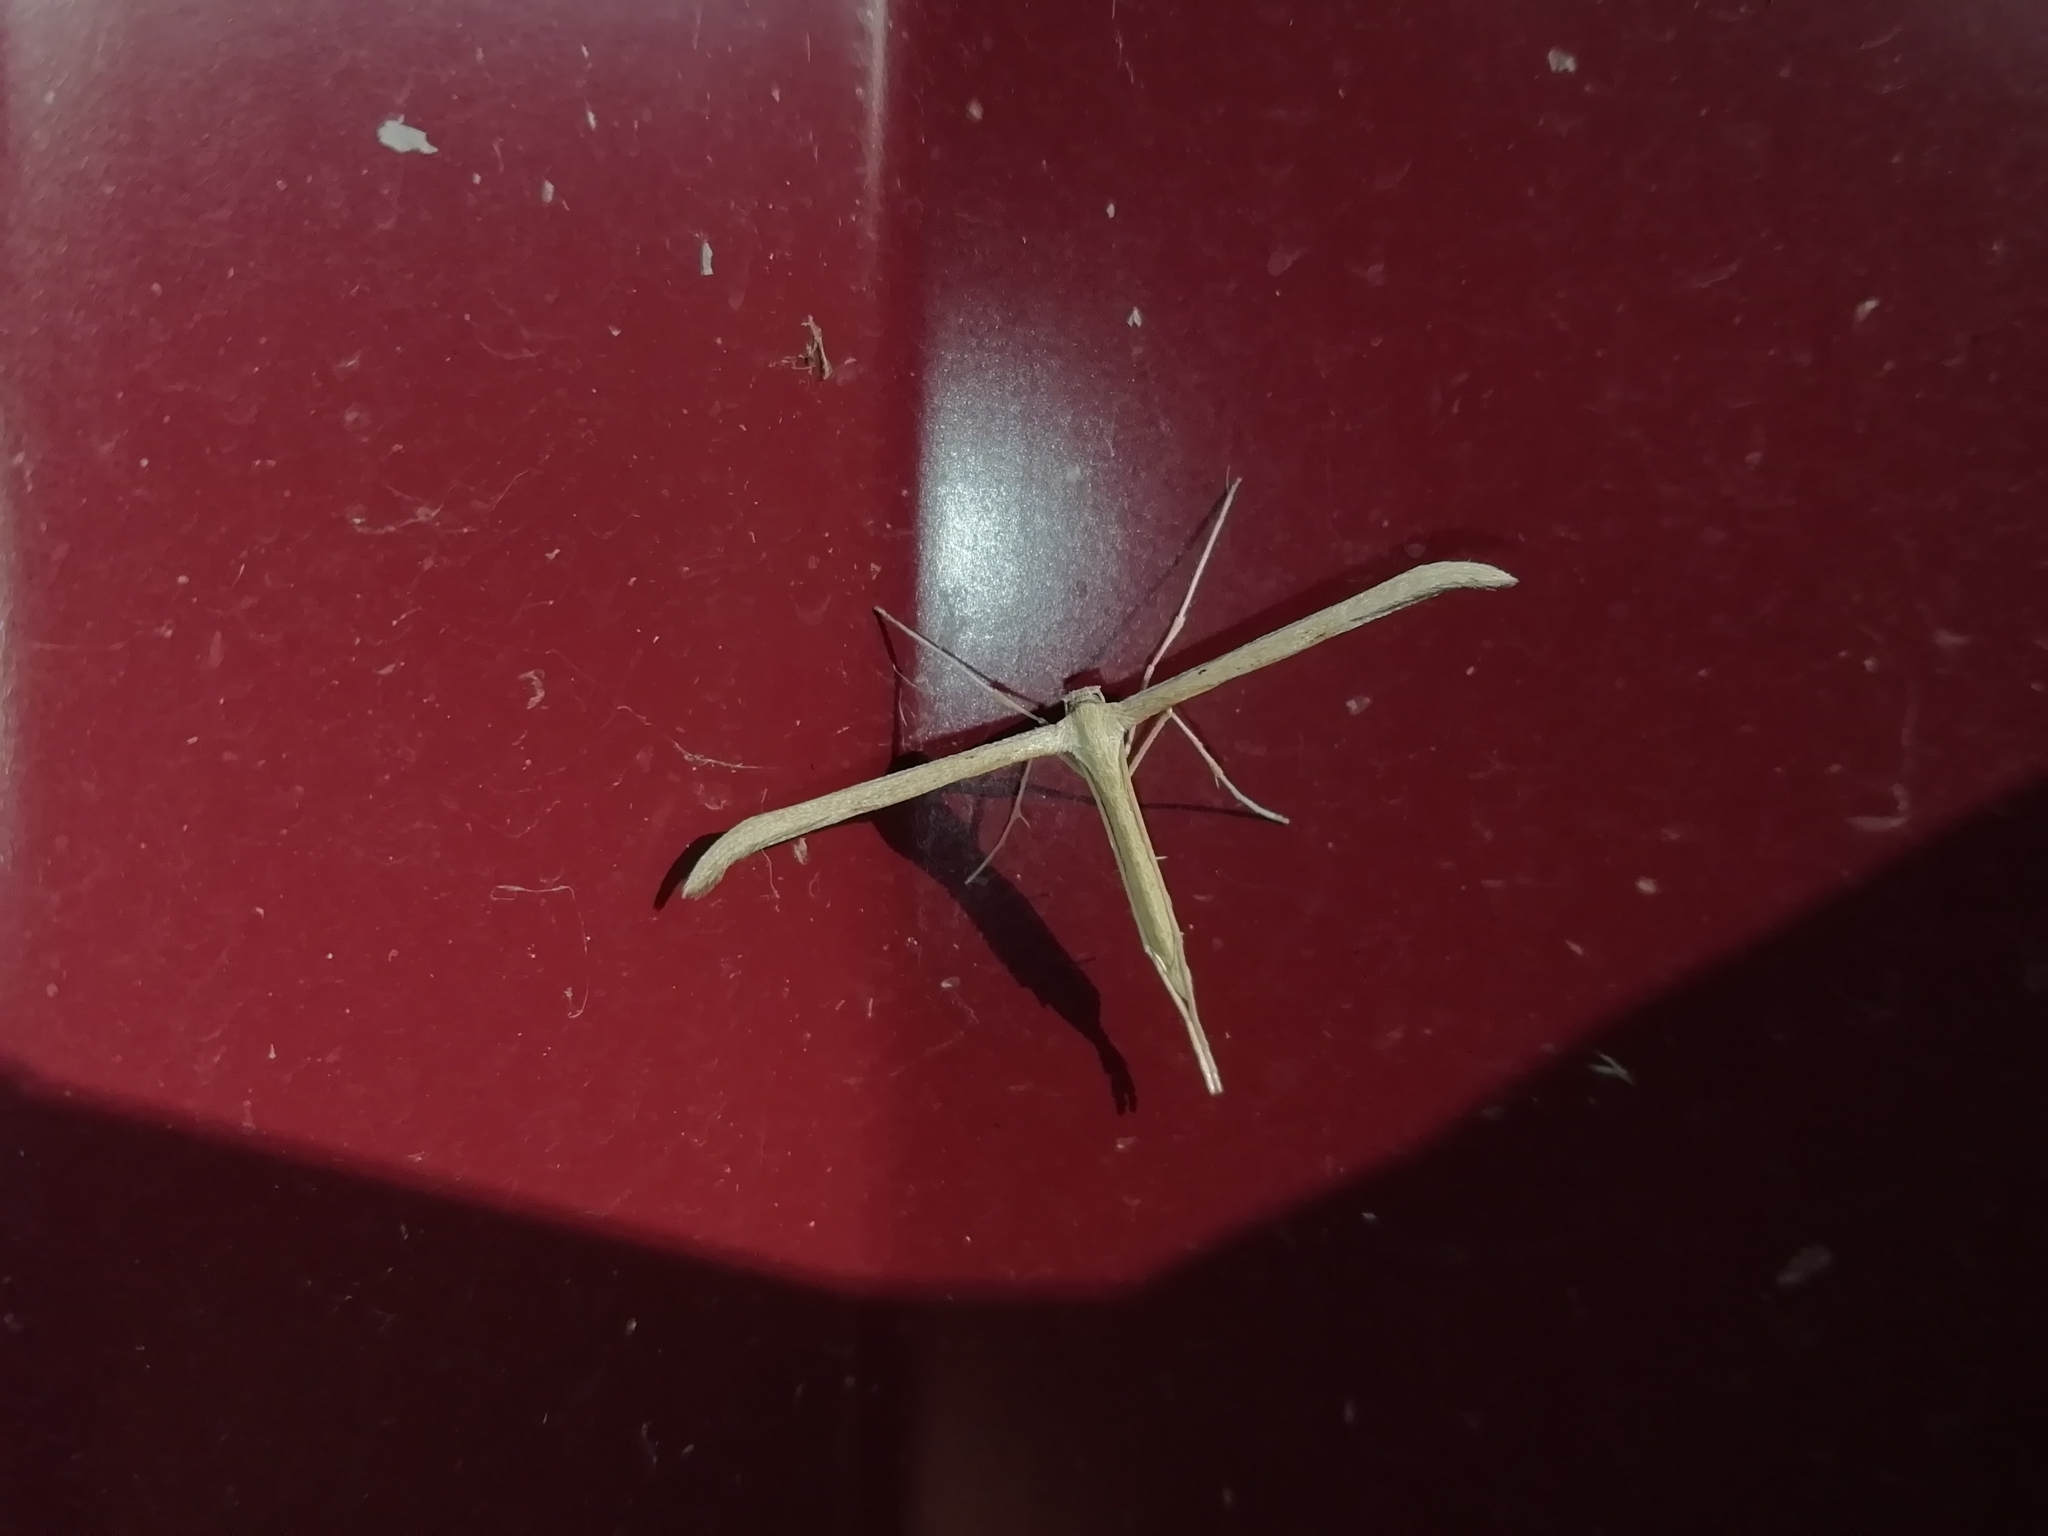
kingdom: Animalia
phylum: Arthropoda
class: Insecta
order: Lepidoptera
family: Pterophoridae
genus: Emmelina
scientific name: Emmelina monodactyla
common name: Common plume
